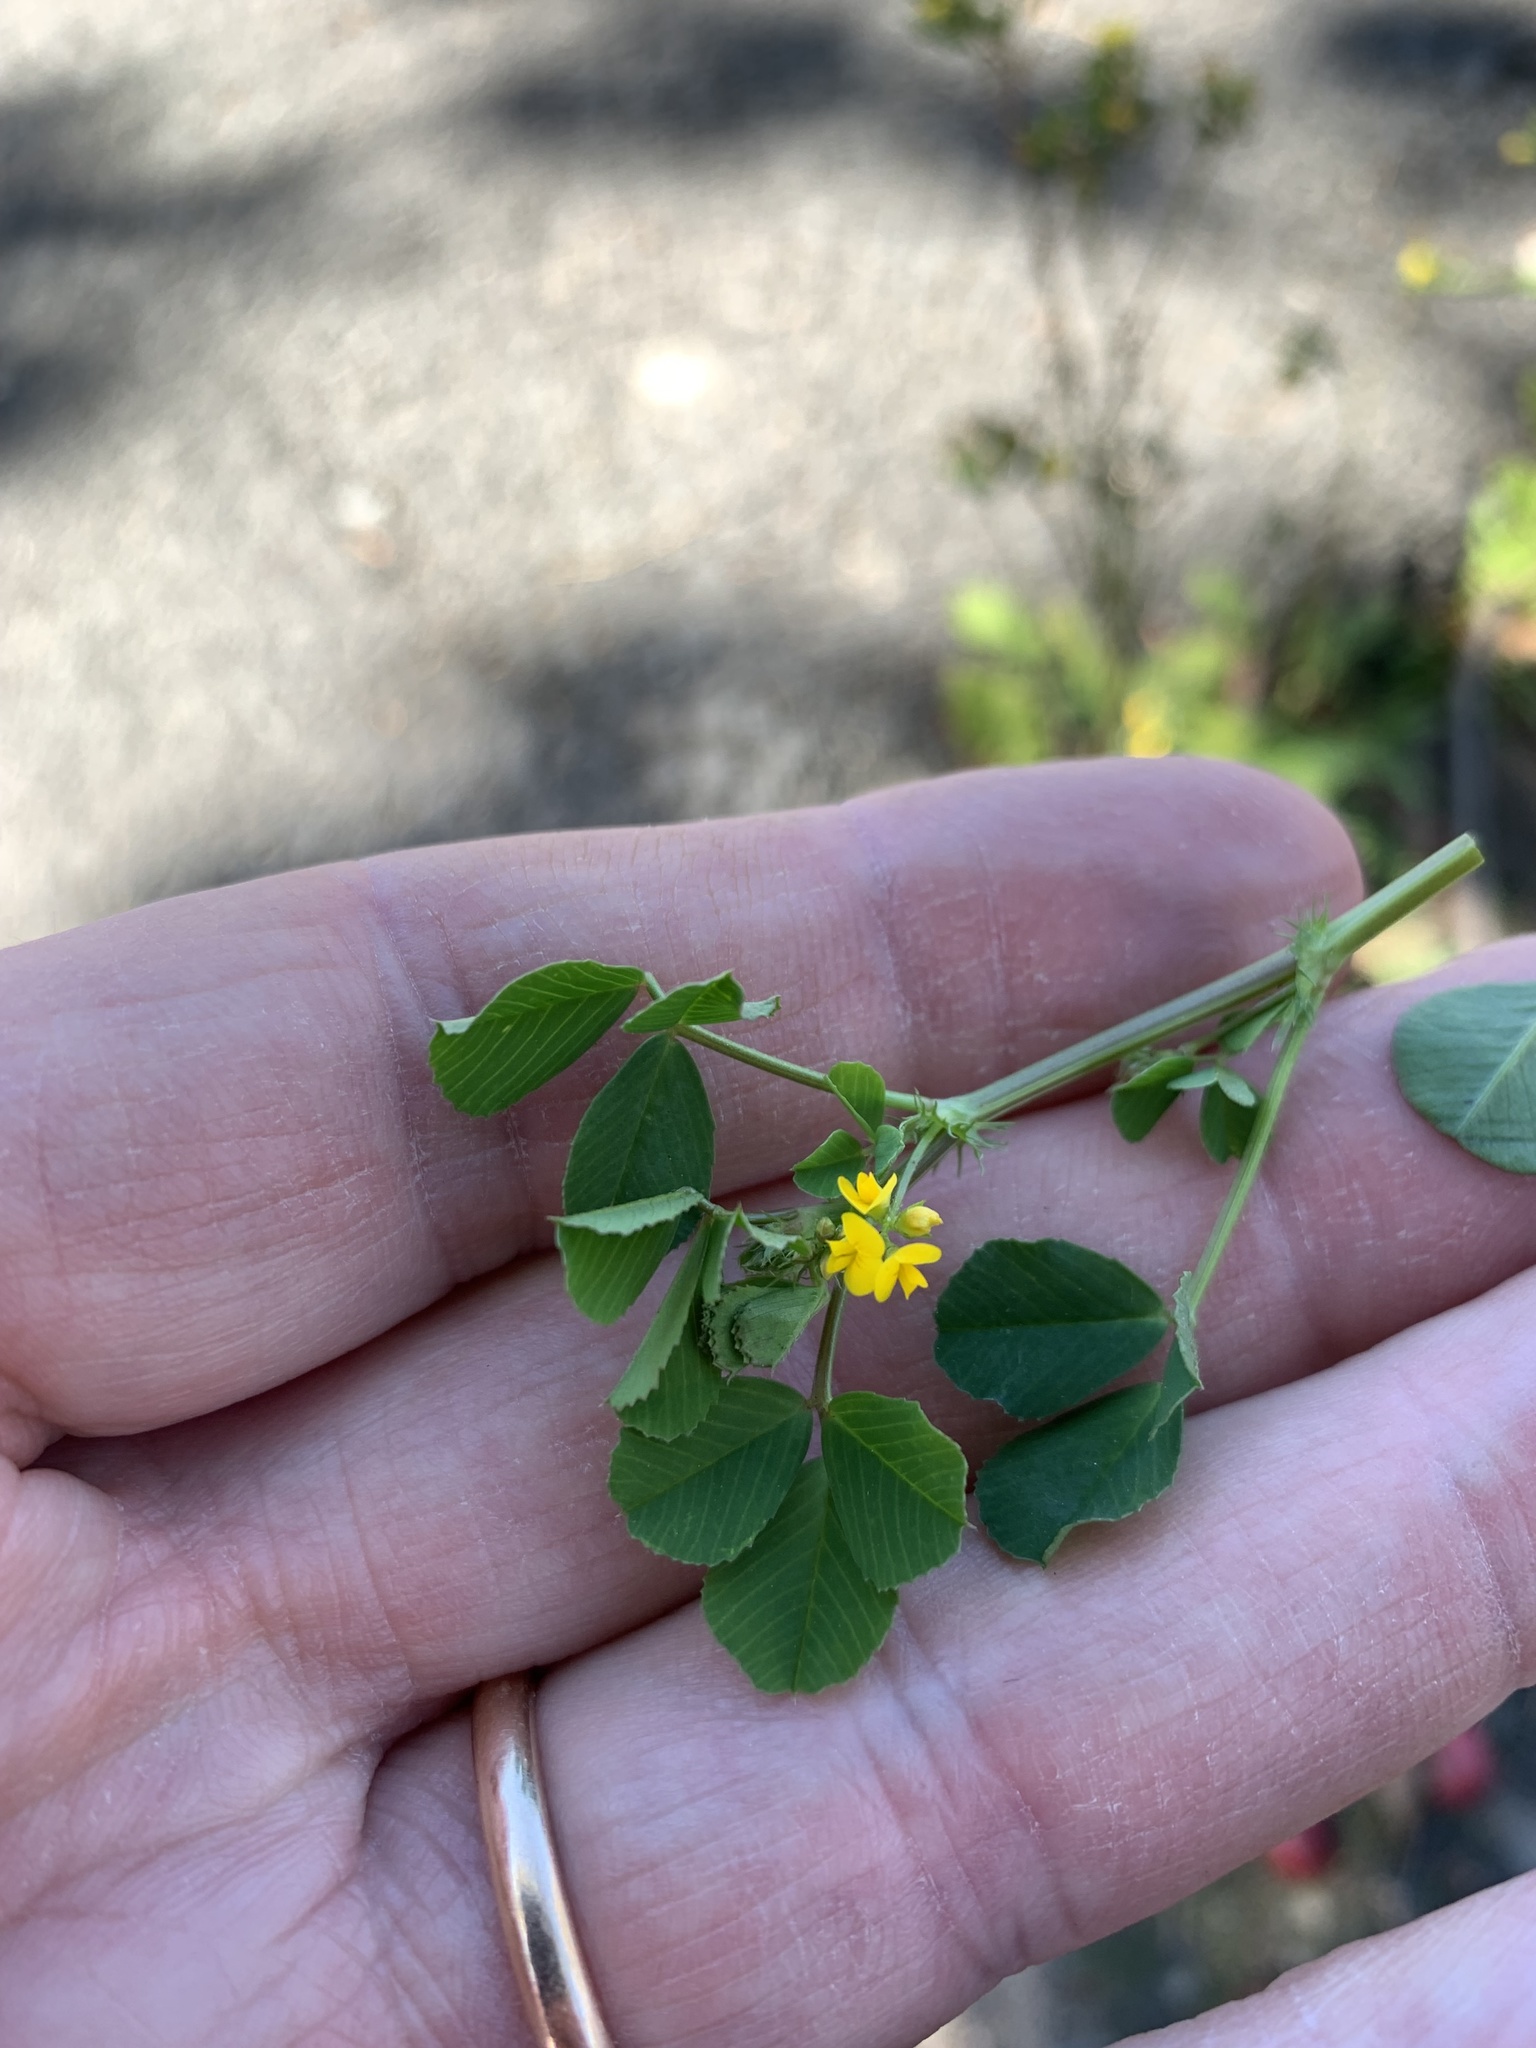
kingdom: Plantae
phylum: Tracheophyta
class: Magnoliopsida
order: Fabales
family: Fabaceae
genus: Medicago
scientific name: Medicago polymorpha
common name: Burclover
